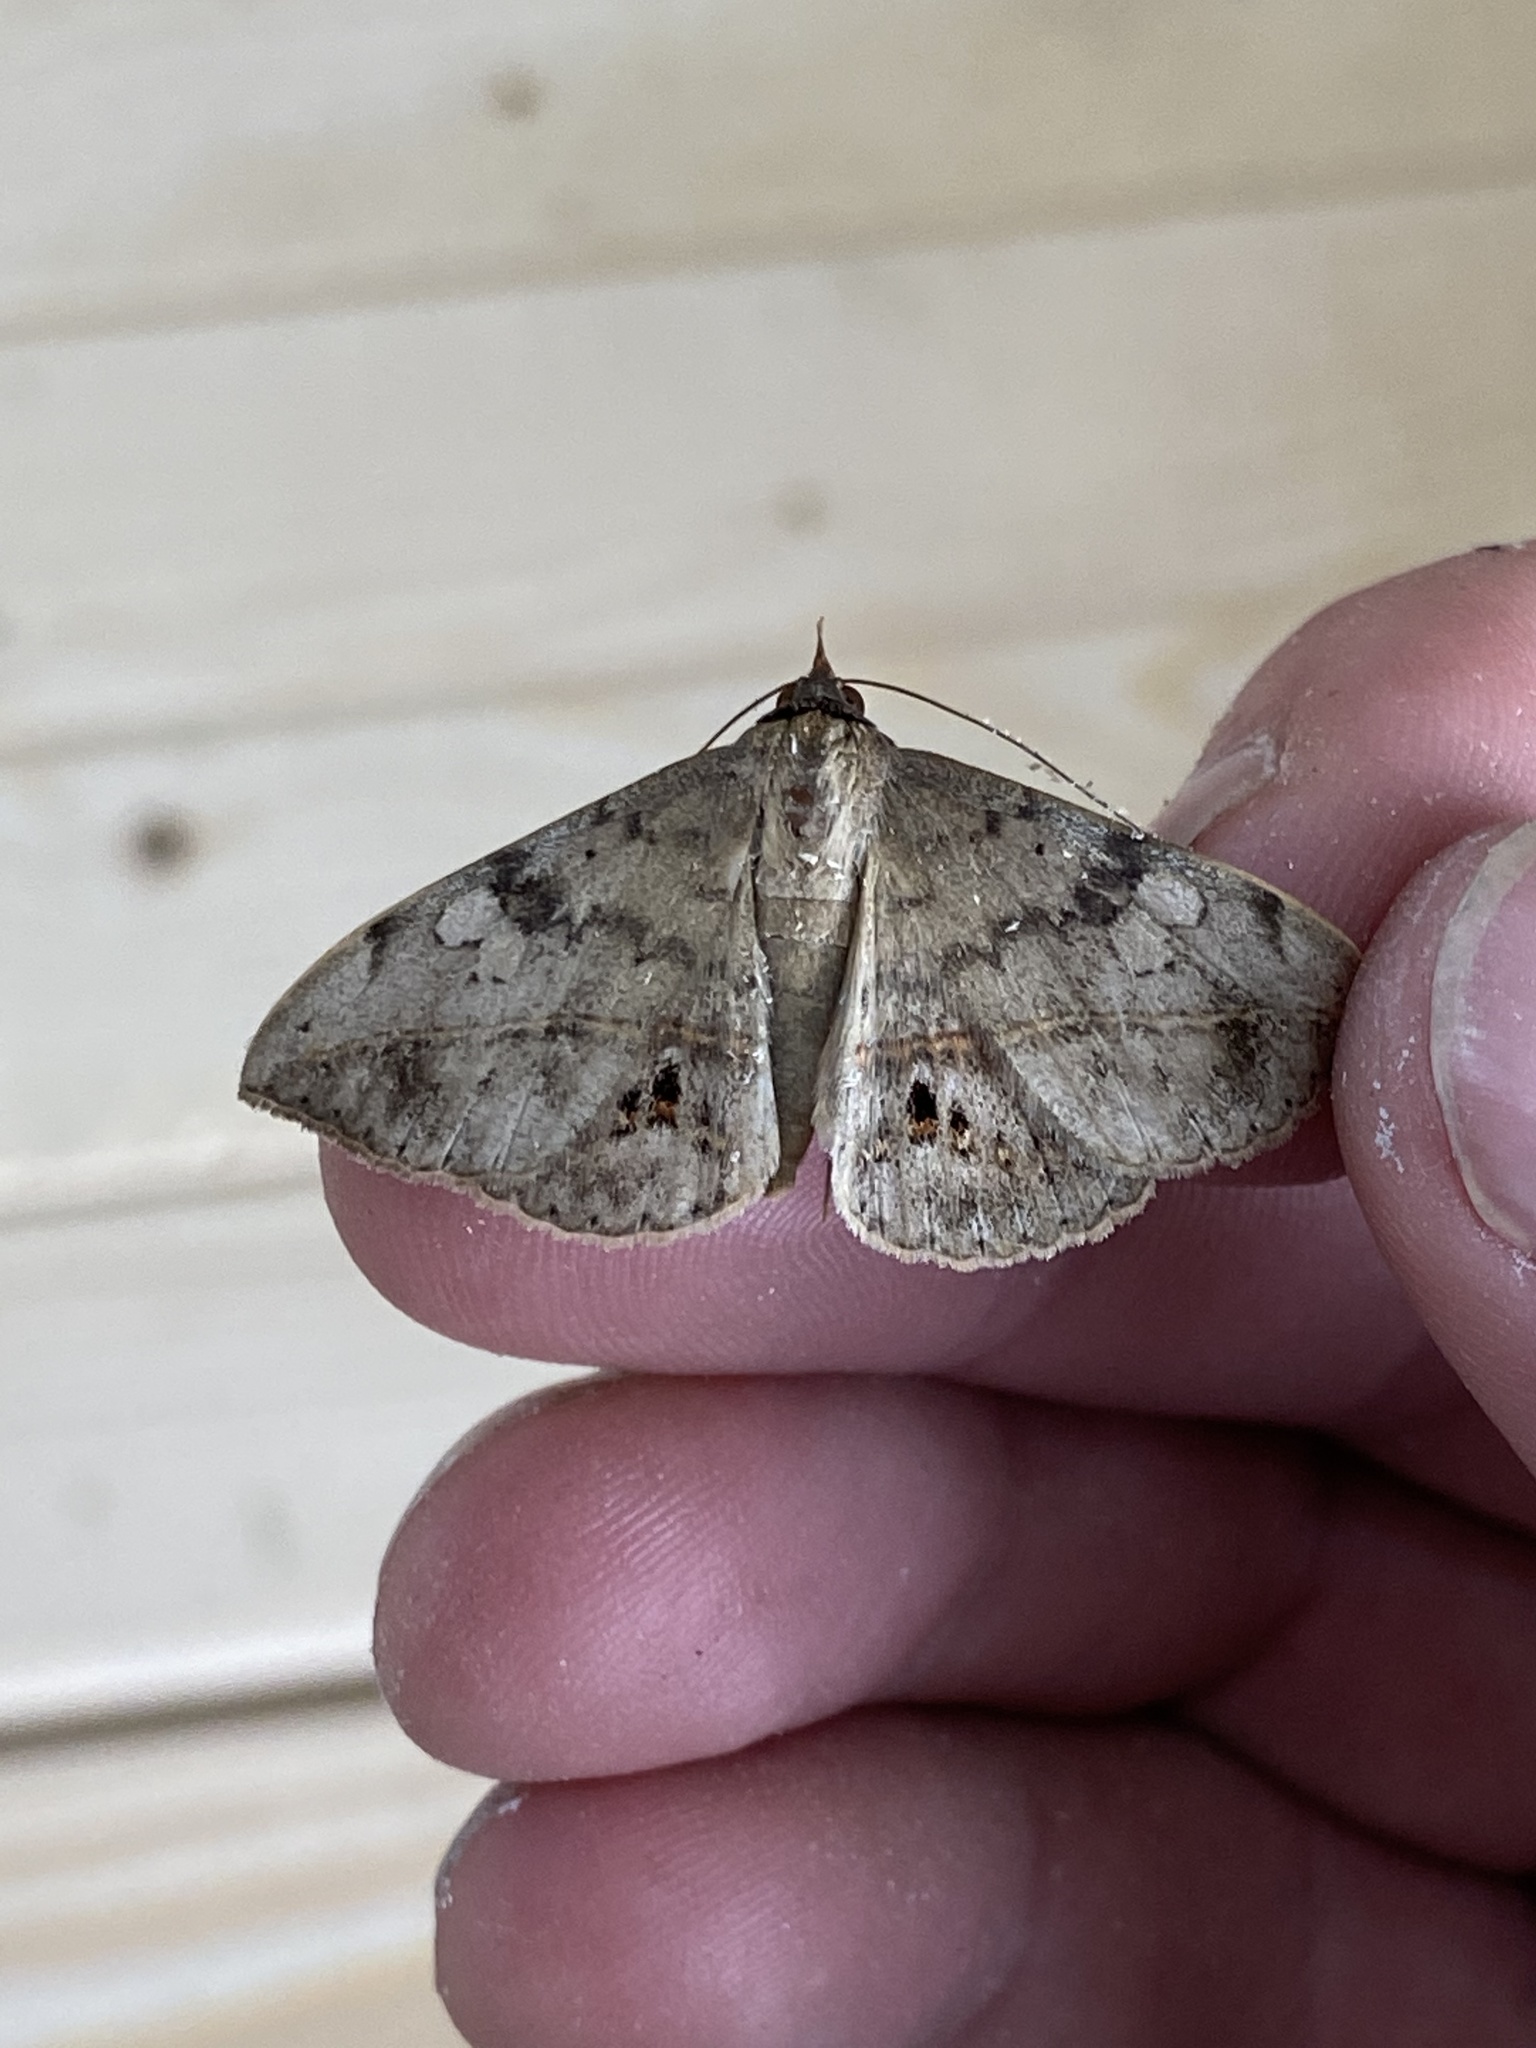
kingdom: Animalia
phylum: Arthropoda
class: Insecta
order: Lepidoptera
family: Erebidae
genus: Anticarsia
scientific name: Anticarsia gemmatalis
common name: Cutworm moth
